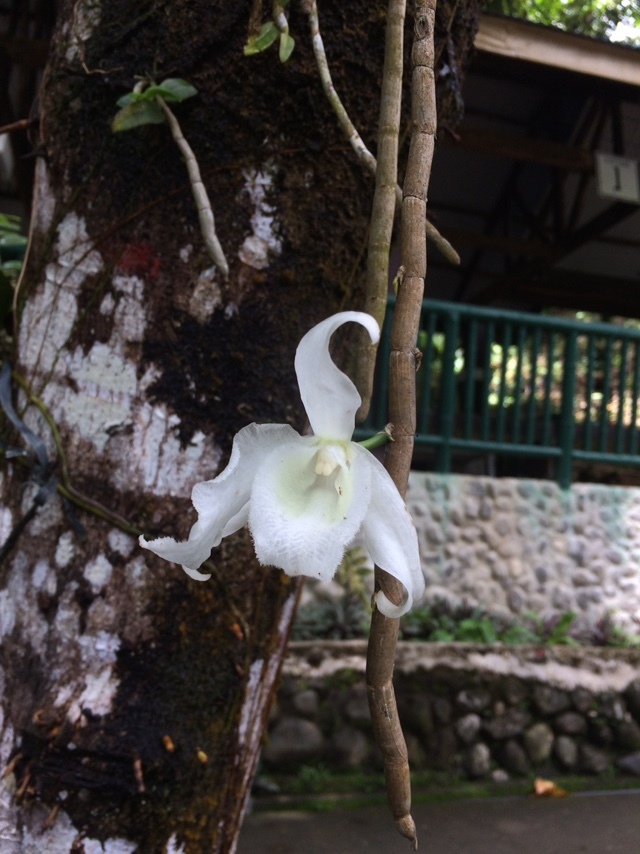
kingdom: Plantae
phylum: Tracheophyta
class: Liliopsida
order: Asparagales
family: Orchidaceae
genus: Dendrobium
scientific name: Dendrobium anosmum
